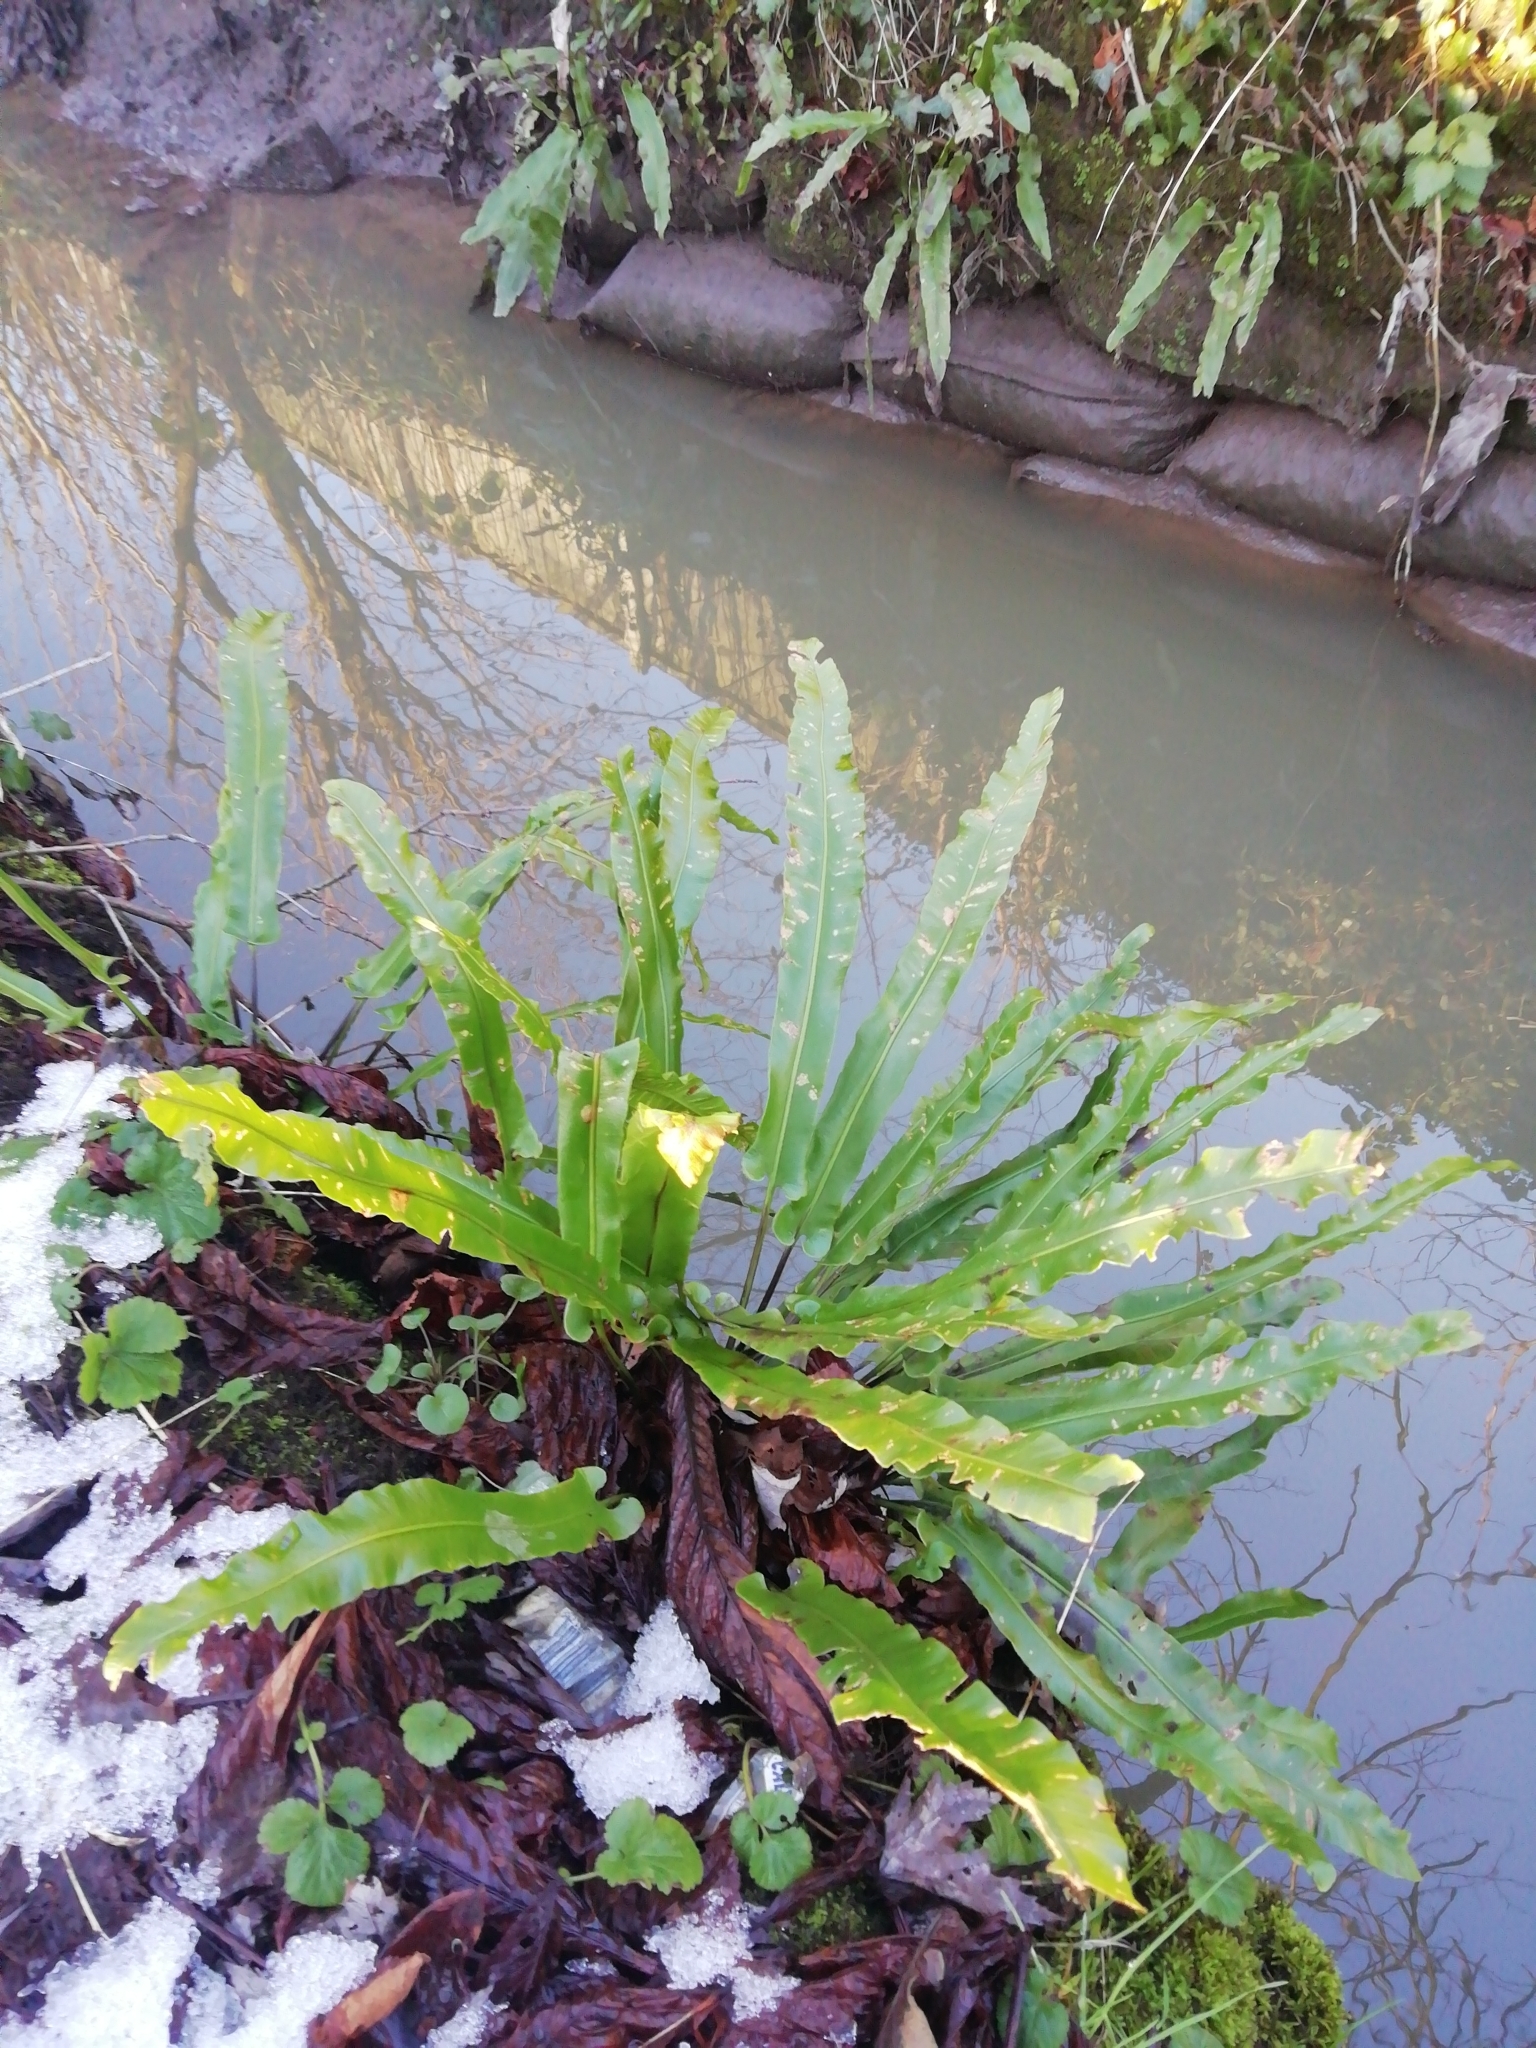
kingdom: Plantae
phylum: Tracheophyta
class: Polypodiopsida
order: Polypodiales
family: Aspleniaceae
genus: Asplenium
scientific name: Asplenium scolopendrium
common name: Hart's-tongue fern
